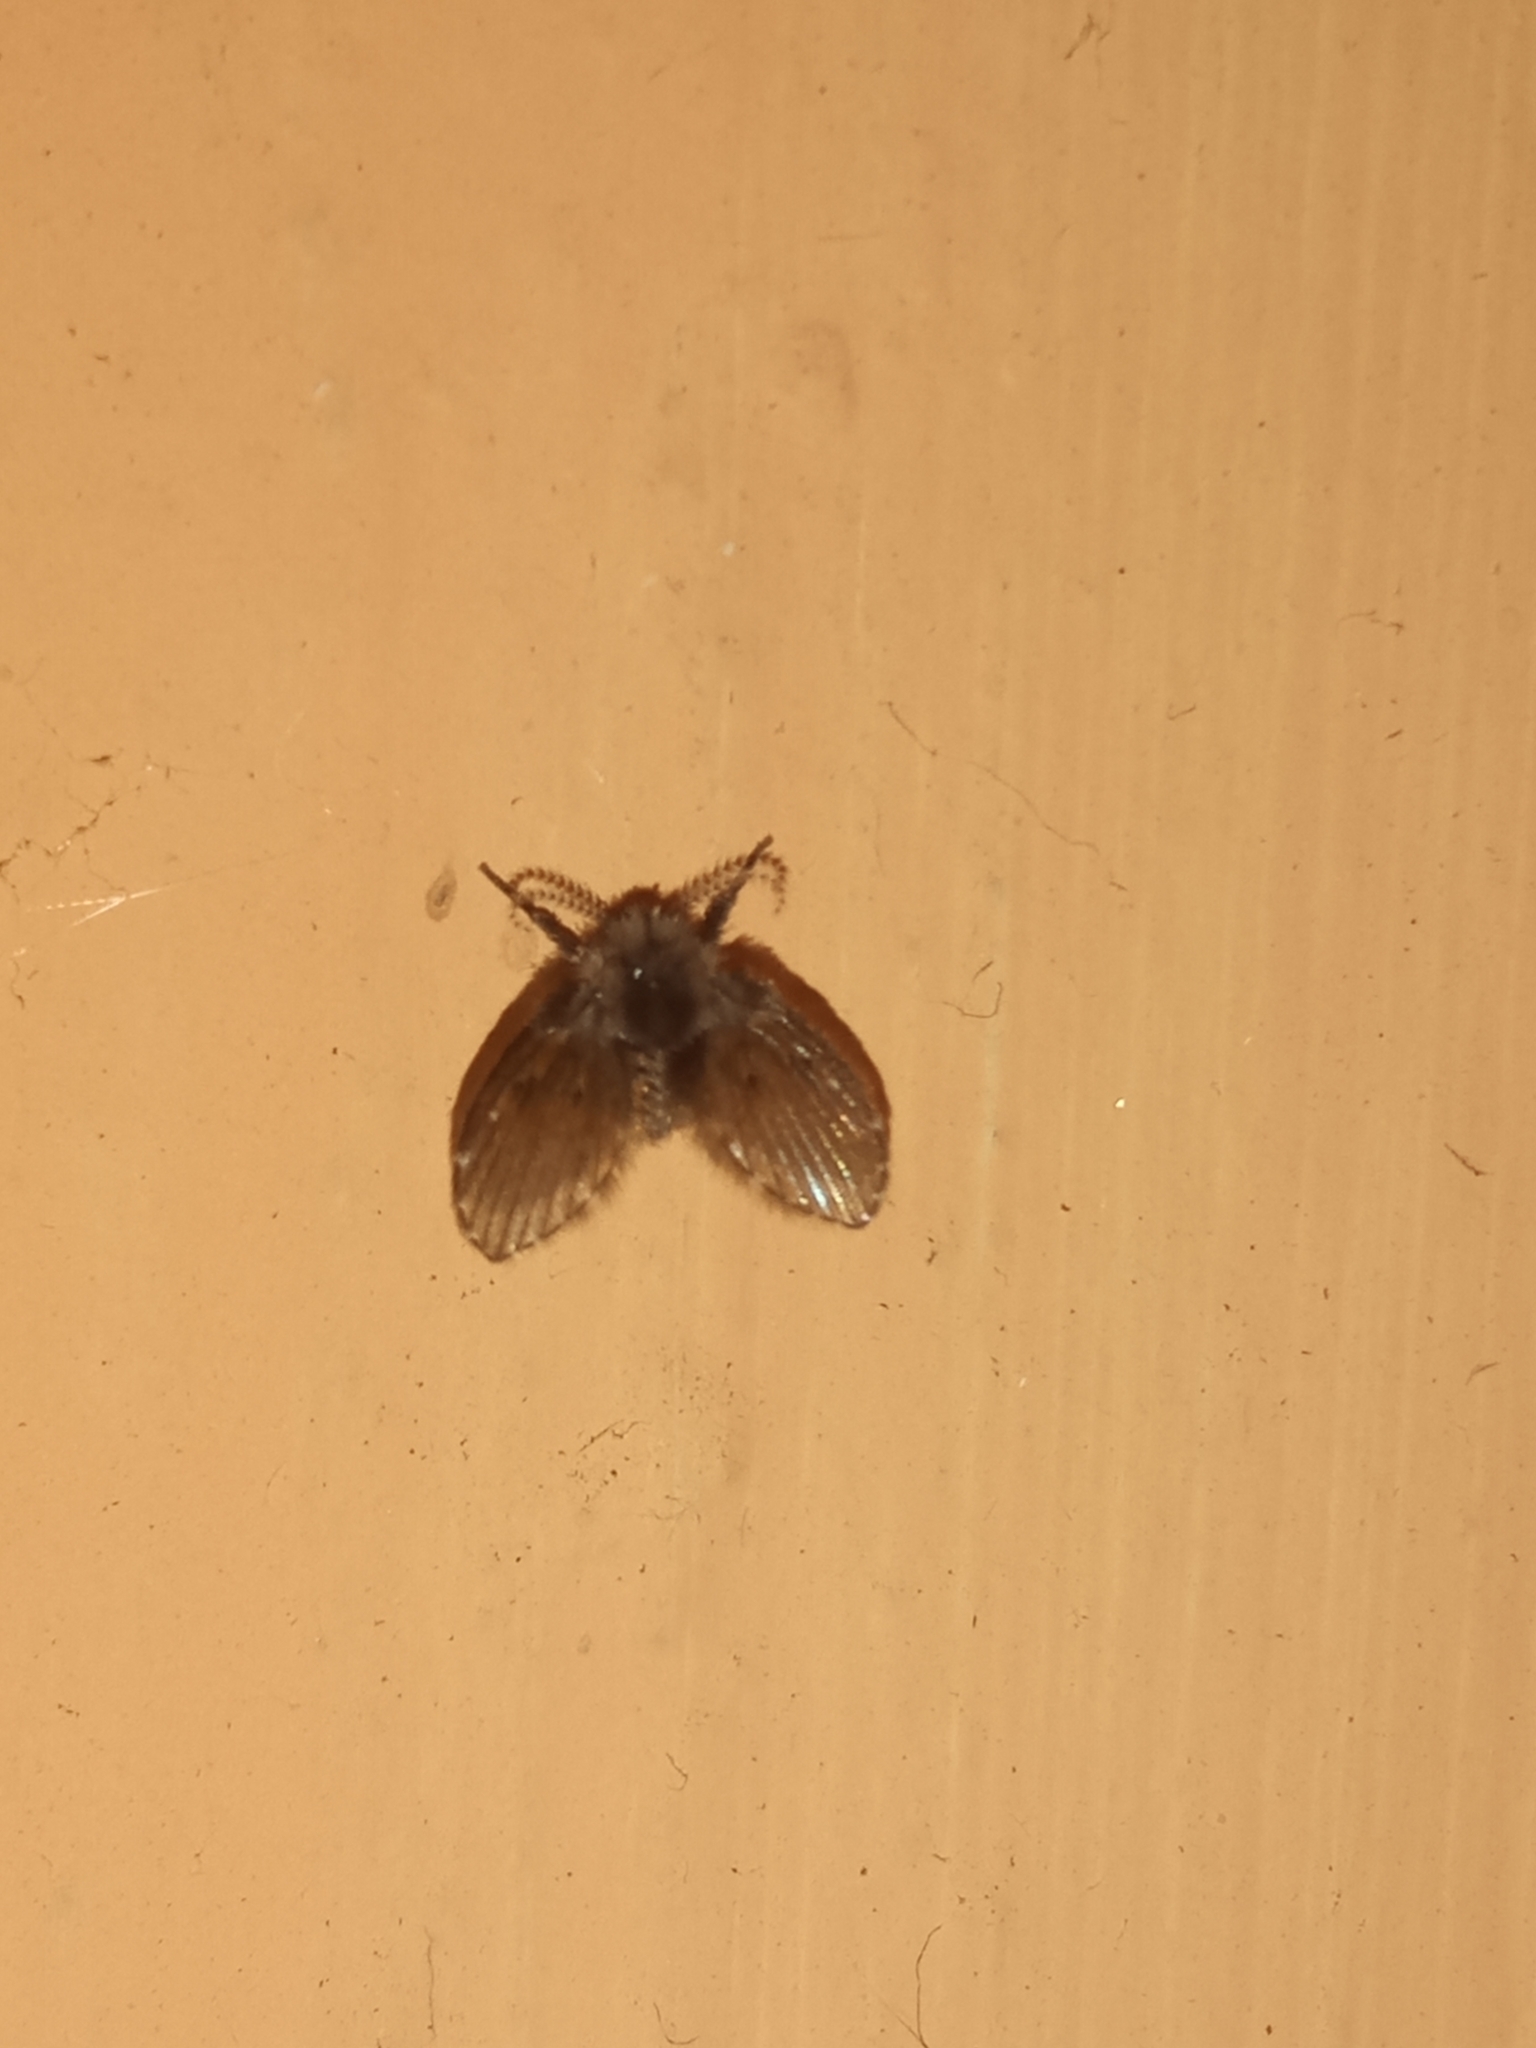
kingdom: Animalia
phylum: Arthropoda
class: Insecta
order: Diptera
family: Psychodidae
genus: Clogmia
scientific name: Clogmia albipunctatus
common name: White-spotted moth fly
